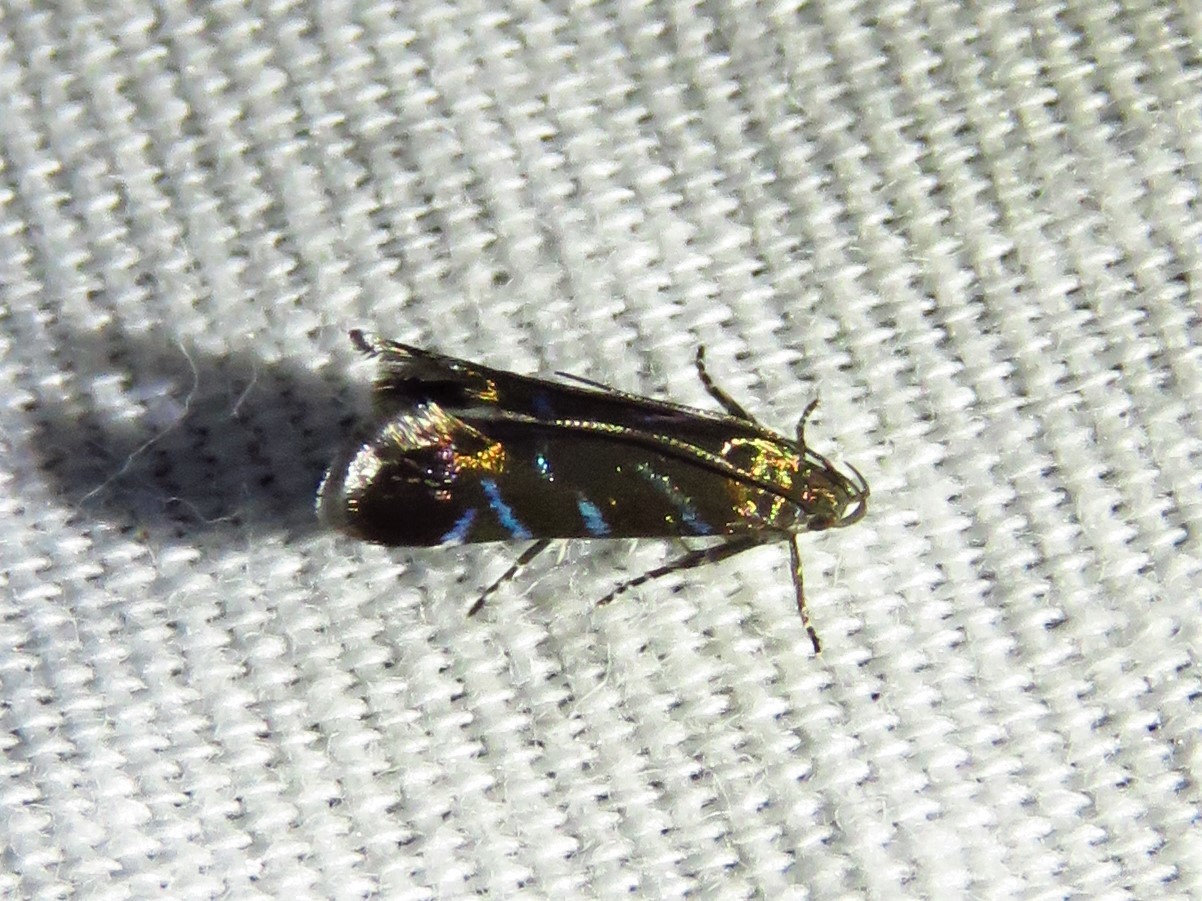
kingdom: Animalia
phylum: Arthropoda
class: Insecta
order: Lepidoptera
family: Gelechiidae
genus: Strobisia
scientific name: Strobisia proserpinella
